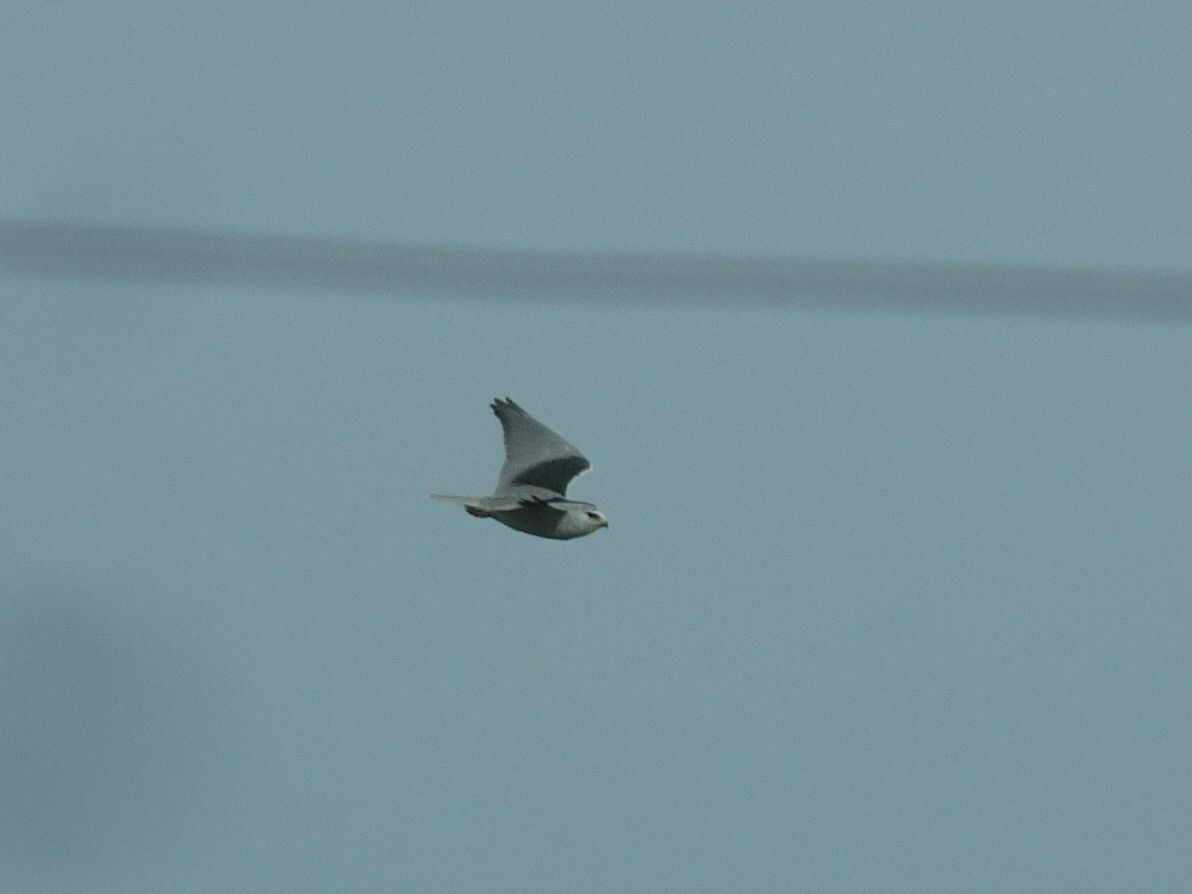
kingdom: Animalia
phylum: Chordata
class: Aves
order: Accipitriformes
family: Accipitridae
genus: Elanus
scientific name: Elanus caeruleus
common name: Black-winged kite
